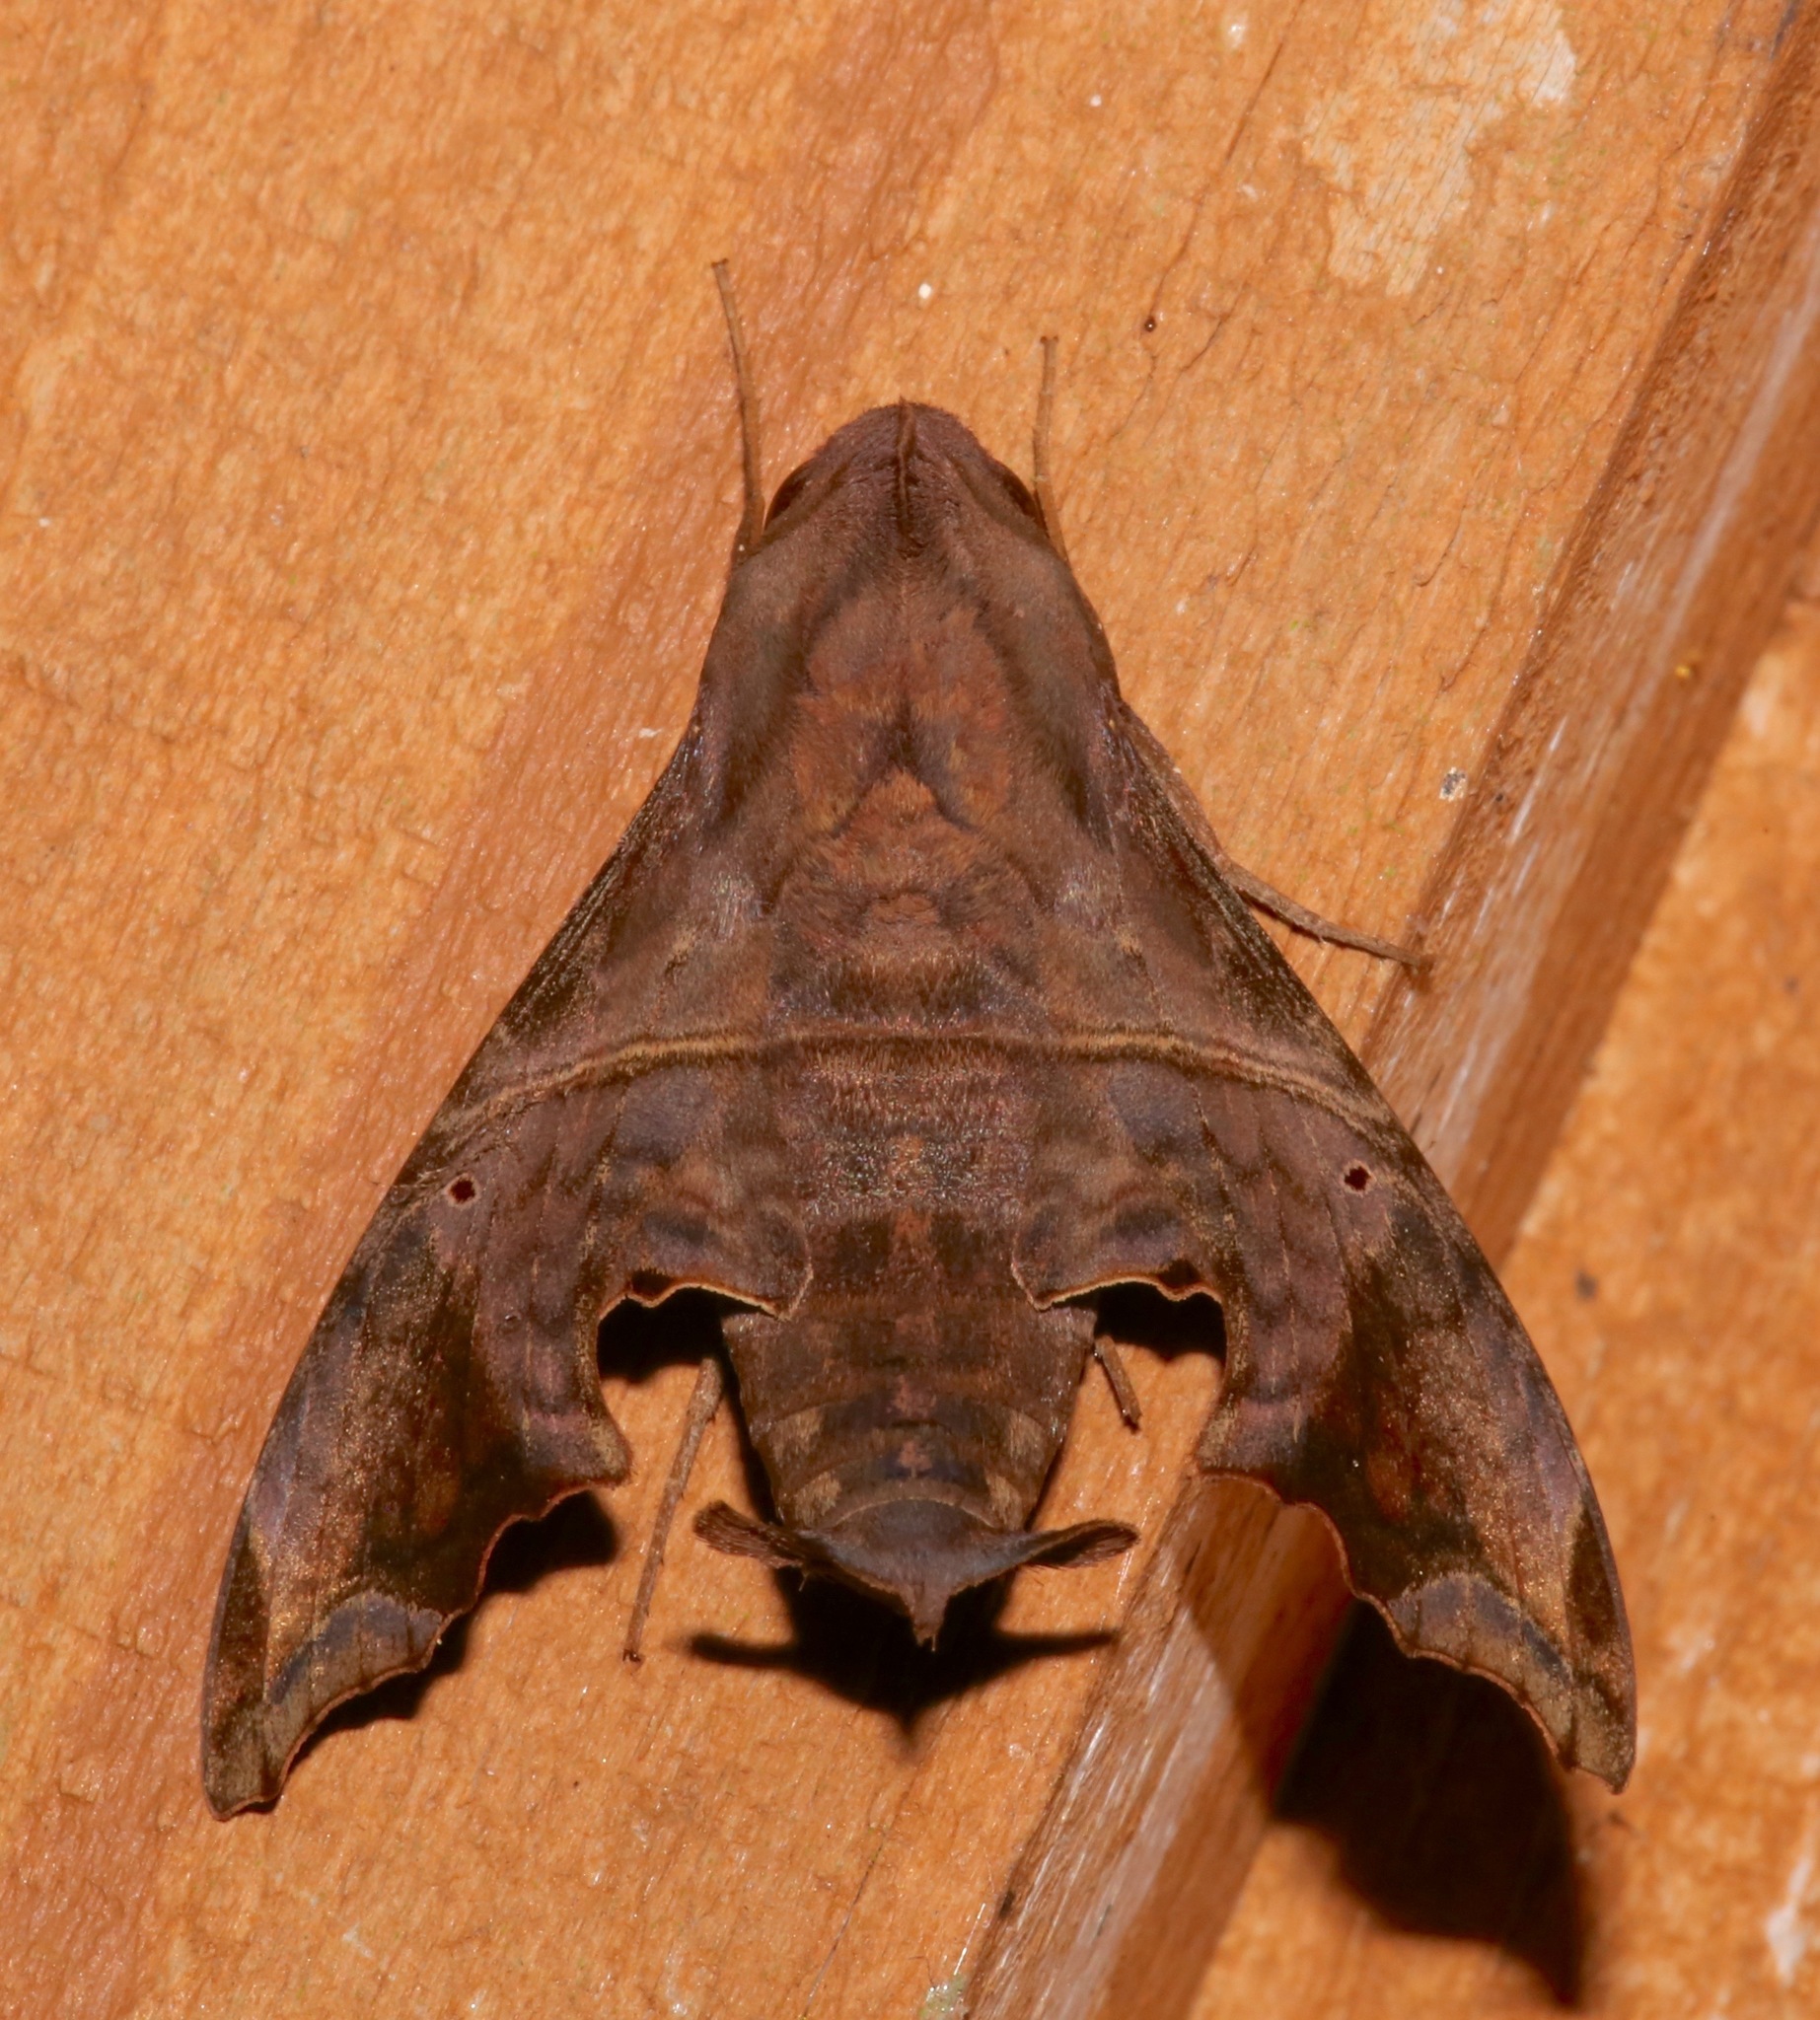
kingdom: Animalia
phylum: Arthropoda
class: Insecta
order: Lepidoptera
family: Sphingidae
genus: Enyo
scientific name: Enyo lugubris
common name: Mournful sphinx
